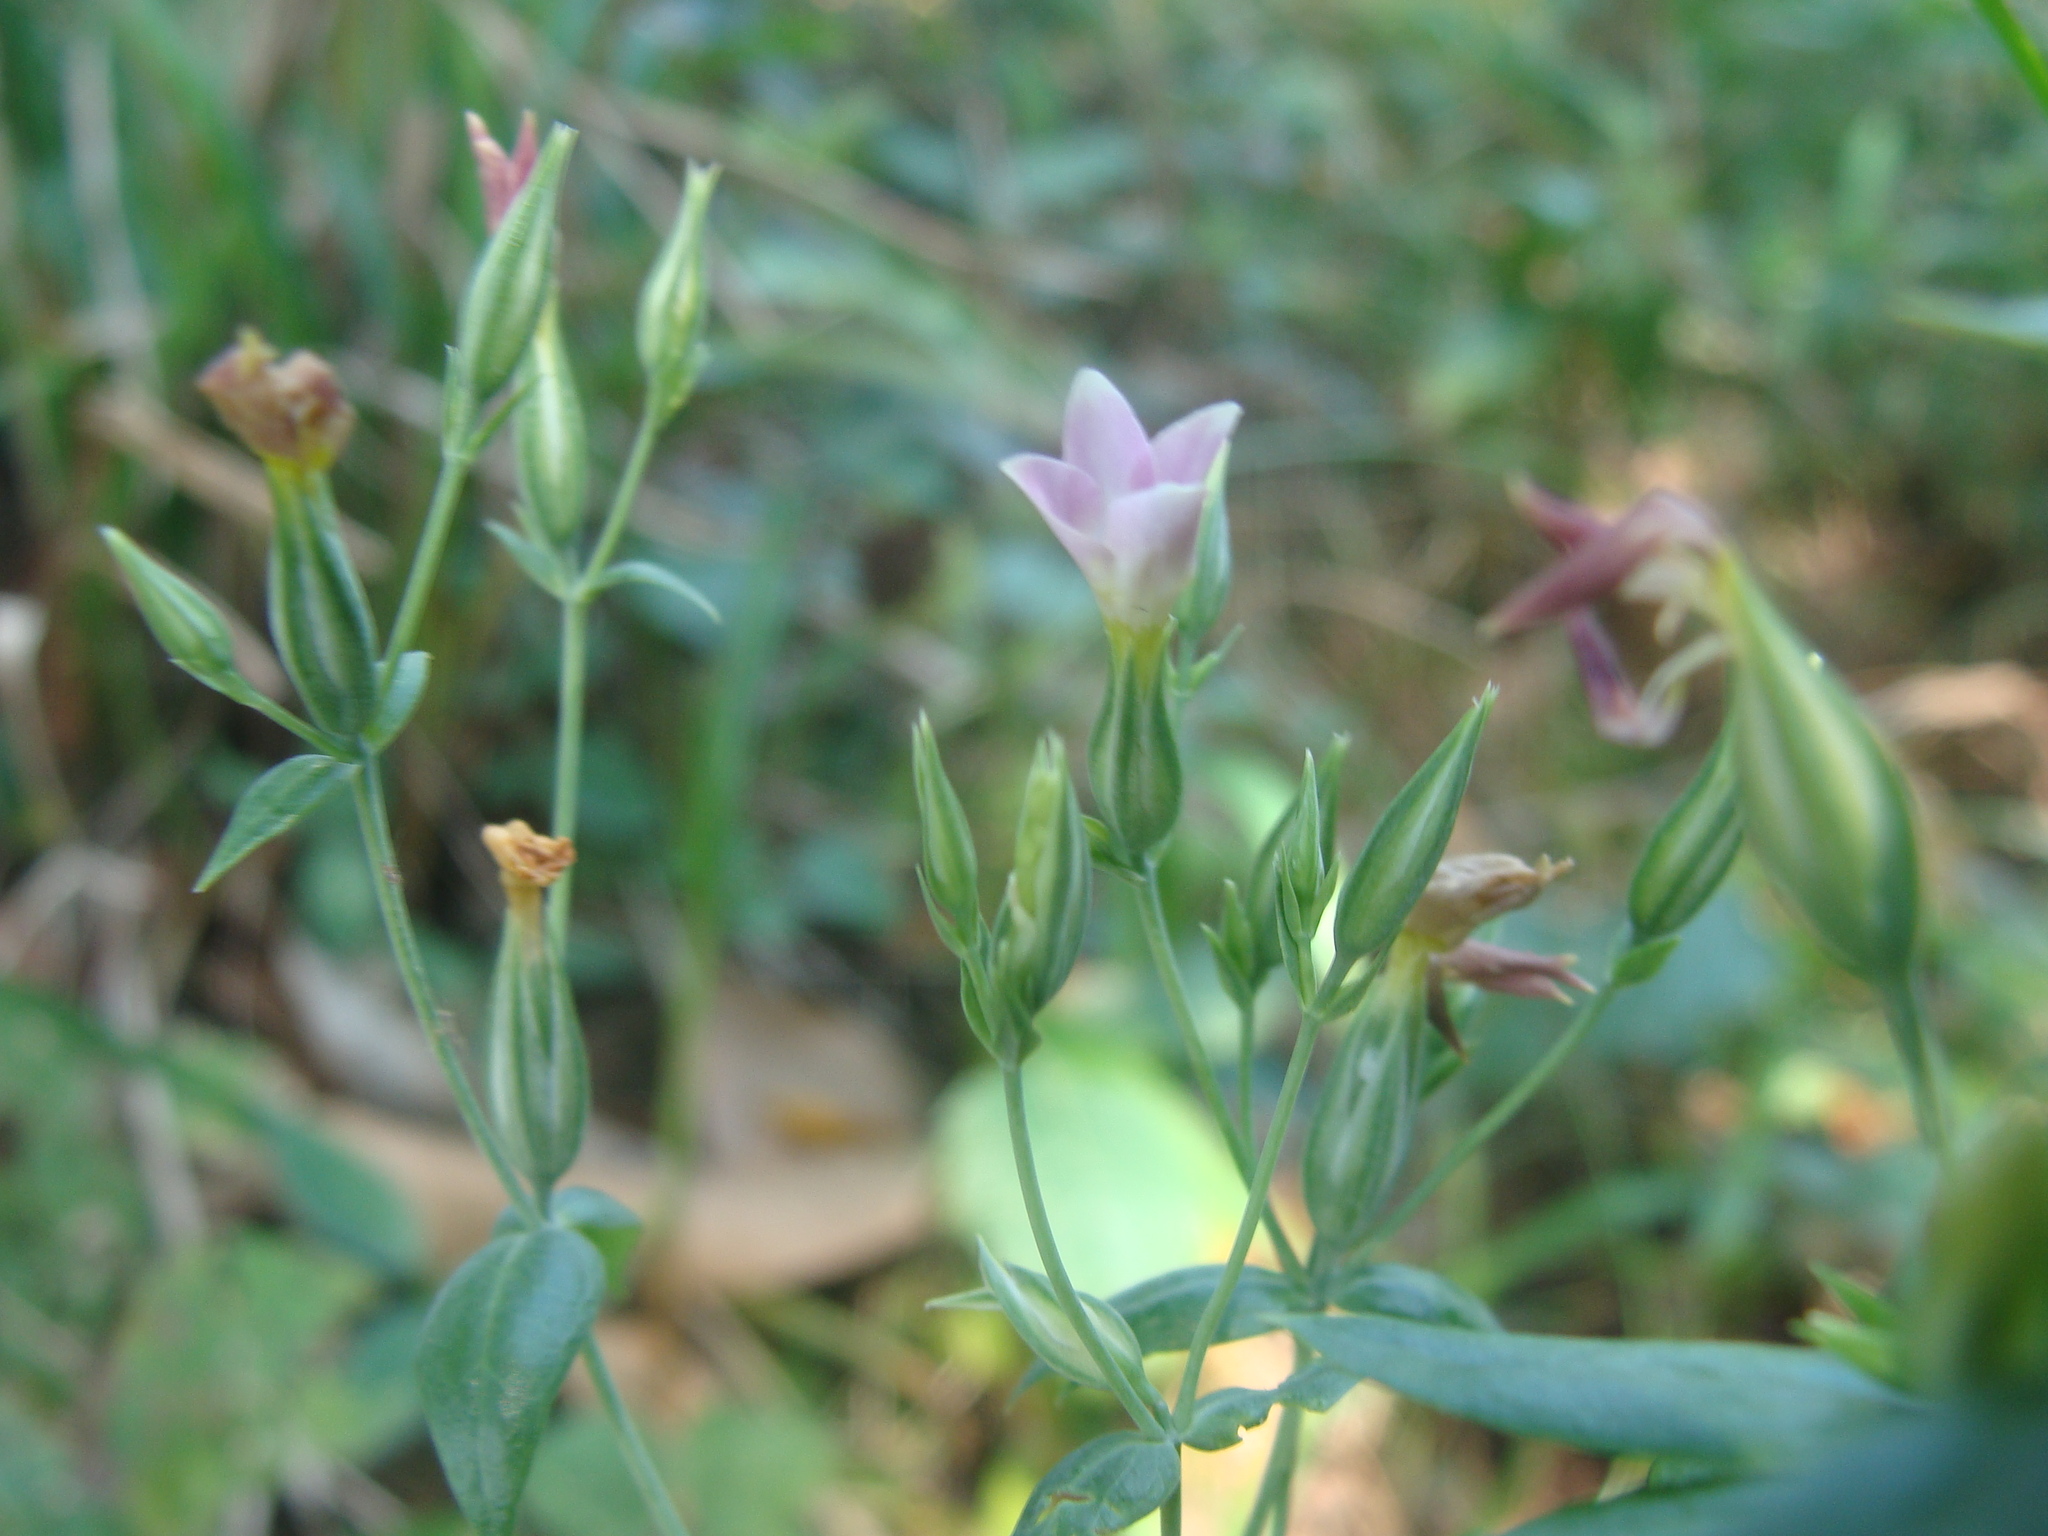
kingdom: Plantae
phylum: Tracheophyta
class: Magnoliopsida
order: Gentianales
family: Gentianaceae
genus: Schultesia
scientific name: Schultesia lisianthoides
